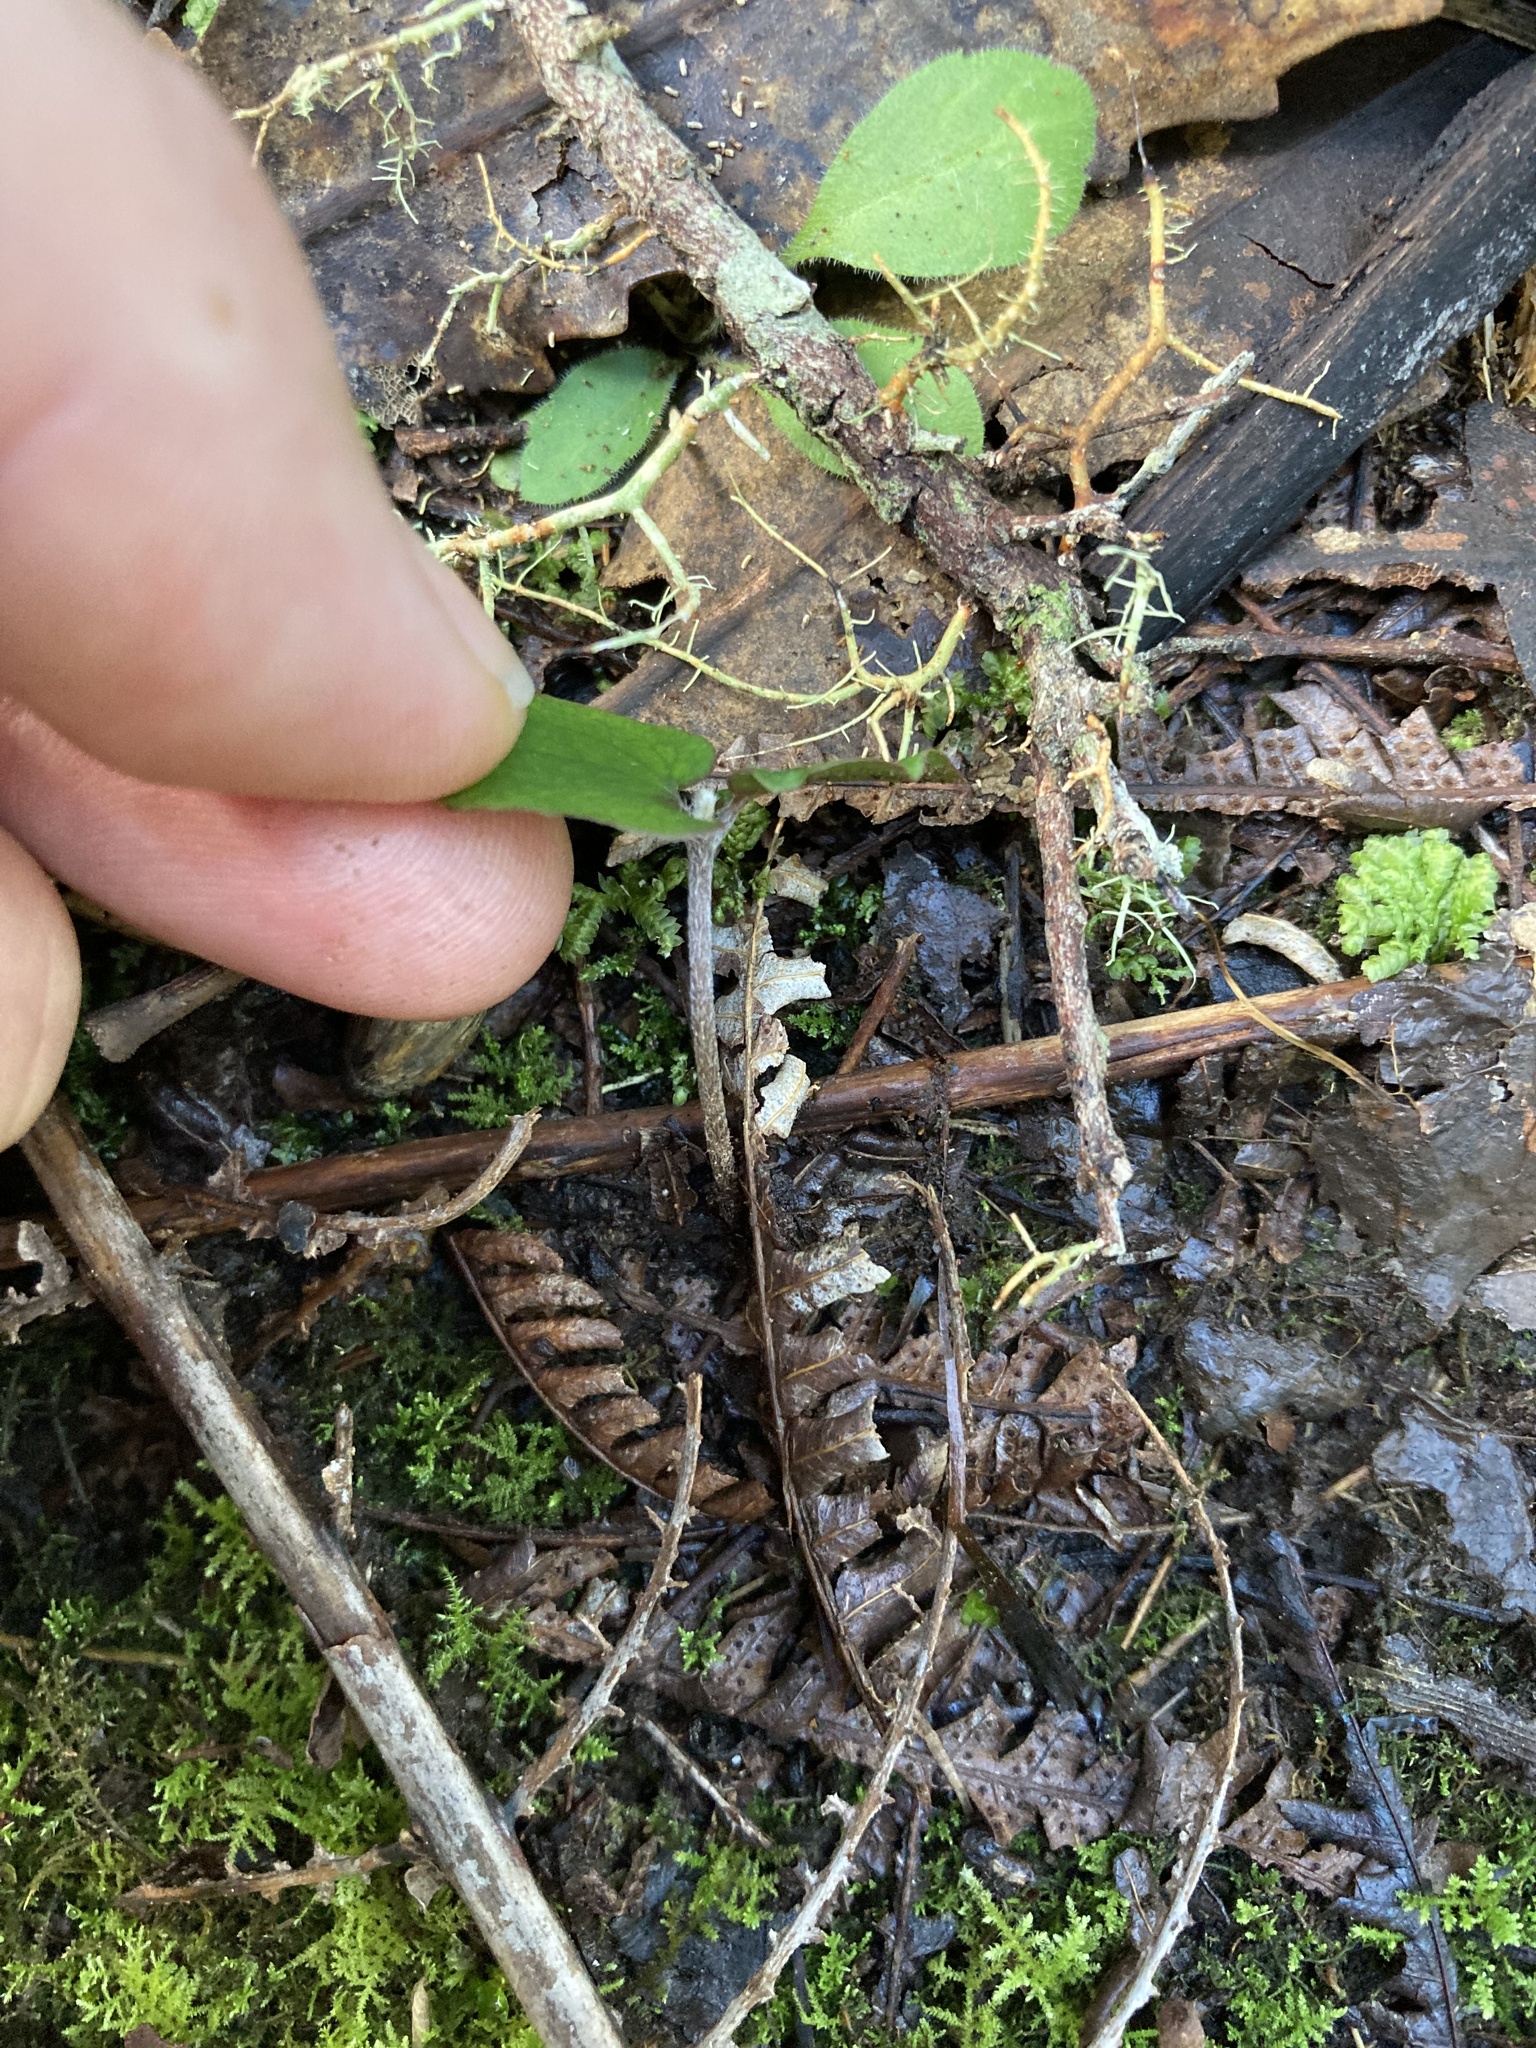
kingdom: Plantae
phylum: Tracheophyta
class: Magnoliopsida
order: Proteales
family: Proteaceae
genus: Knightia
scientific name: Knightia excelsa
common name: New zealand-honeysuckle
